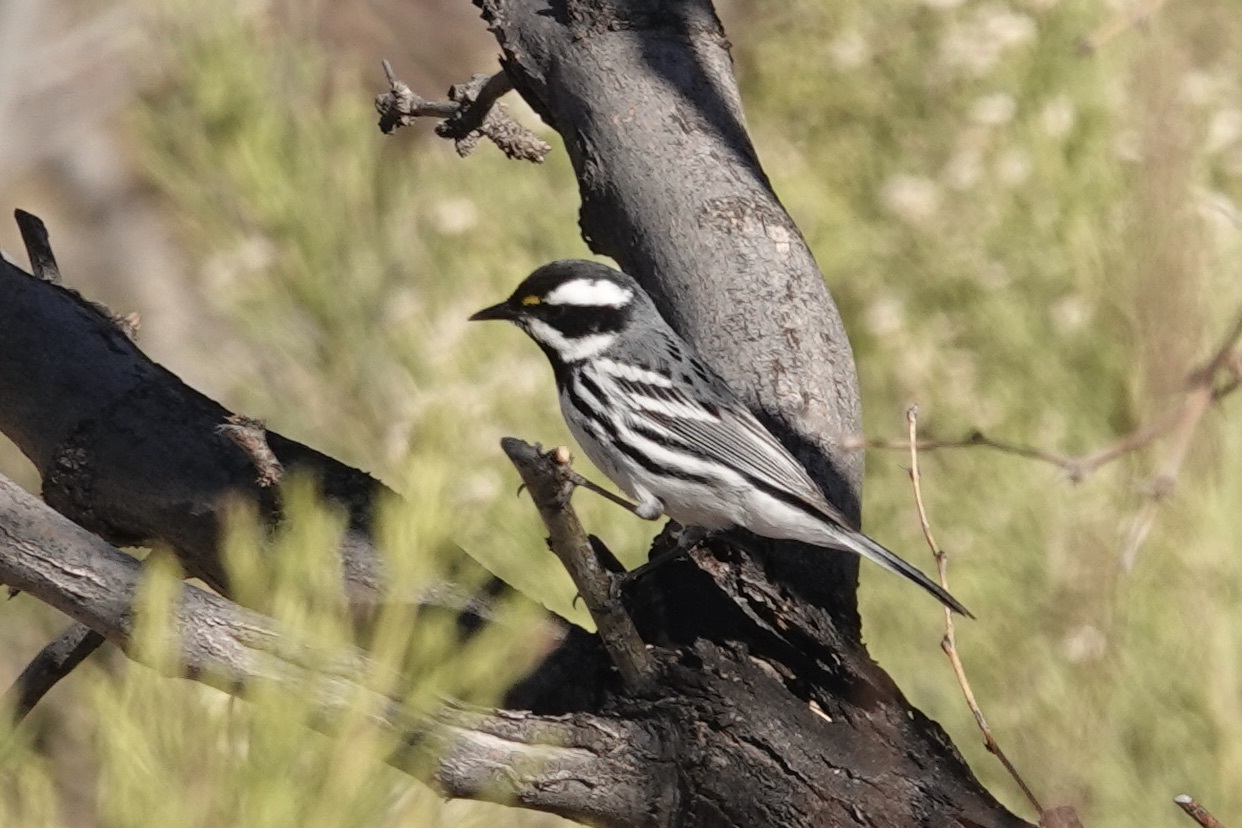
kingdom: Animalia
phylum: Chordata
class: Aves
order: Passeriformes
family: Parulidae
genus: Setophaga
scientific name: Setophaga nigrescens
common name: Black-throated gray warbler
